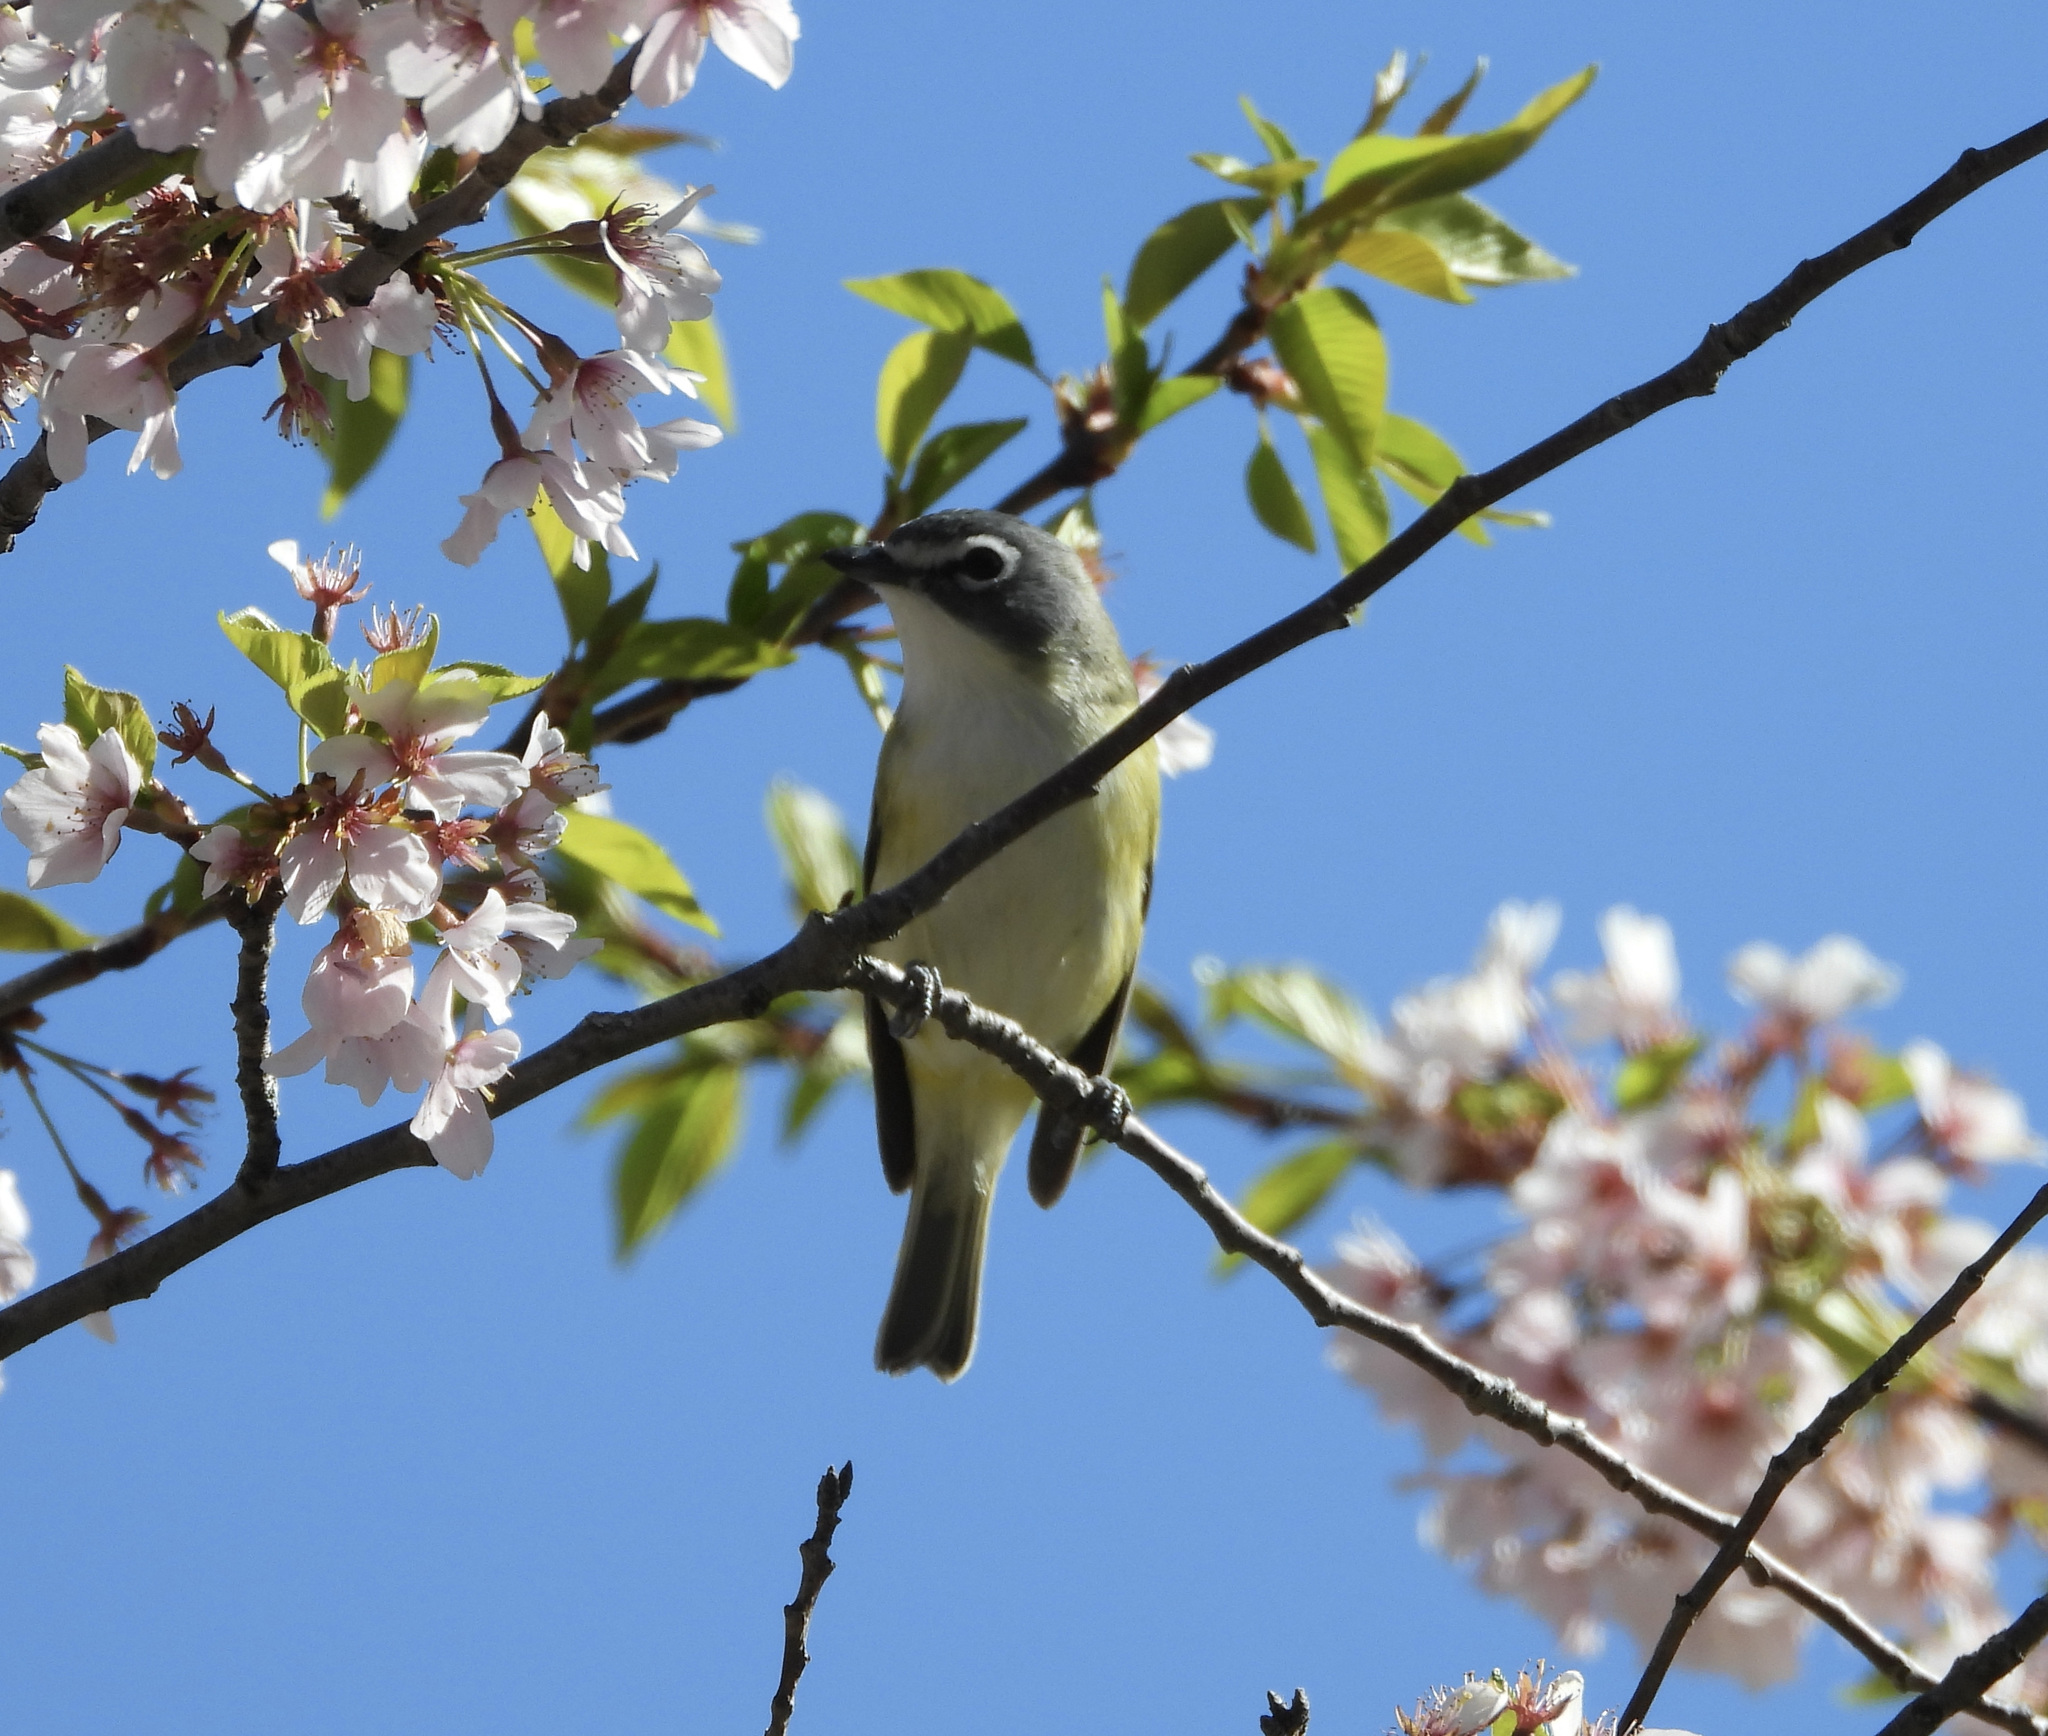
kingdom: Animalia
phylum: Chordata
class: Aves
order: Passeriformes
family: Vireonidae
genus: Vireo
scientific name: Vireo solitarius
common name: Blue-headed vireo
